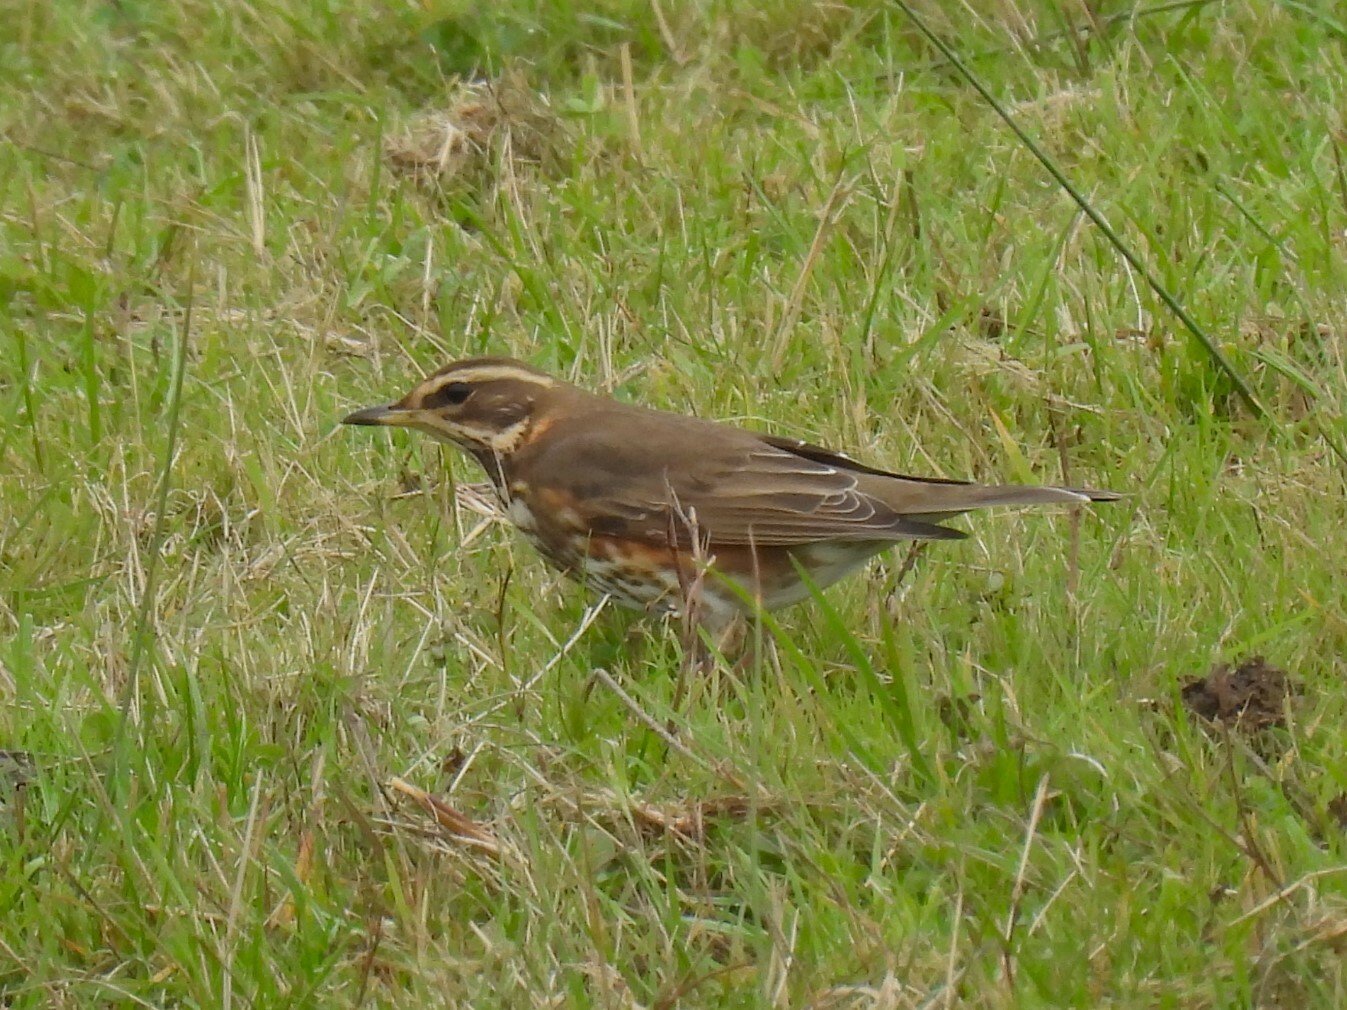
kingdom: Animalia
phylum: Chordata
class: Aves
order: Passeriformes
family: Turdidae
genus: Turdus
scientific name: Turdus iliacus
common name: Redwing
